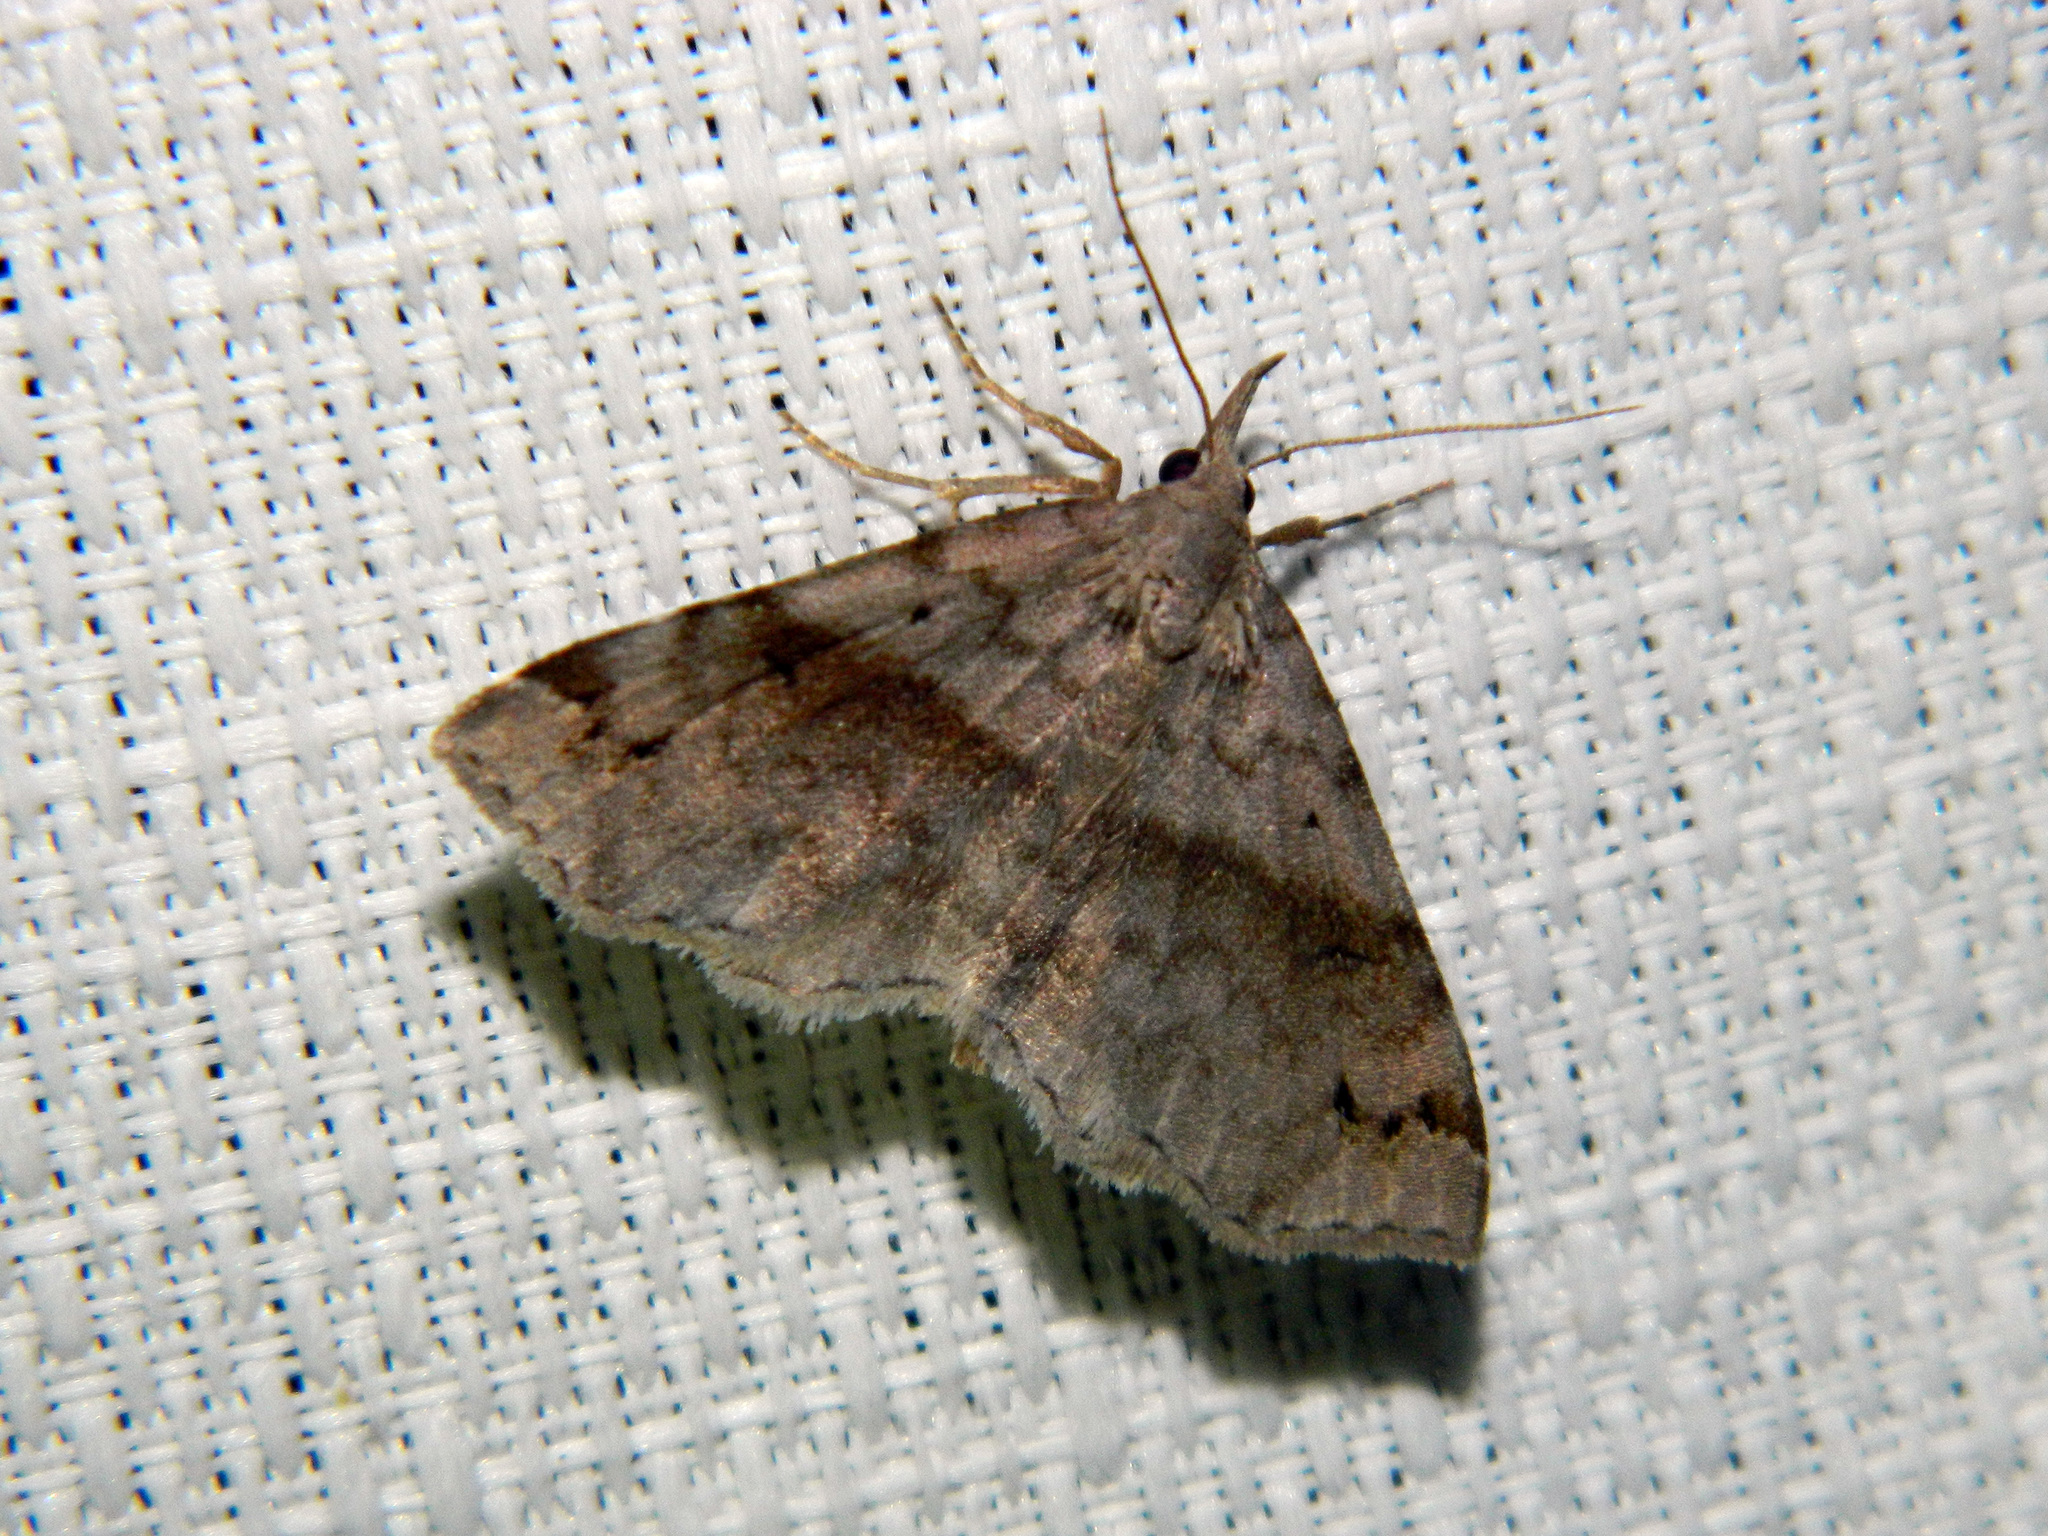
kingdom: Animalia
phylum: Arthropoda
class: Insecta
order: Lepidoptera
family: Erebidae
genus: Spargaloma
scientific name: Spargaloma sexpunctata
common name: Six-spotted gray
